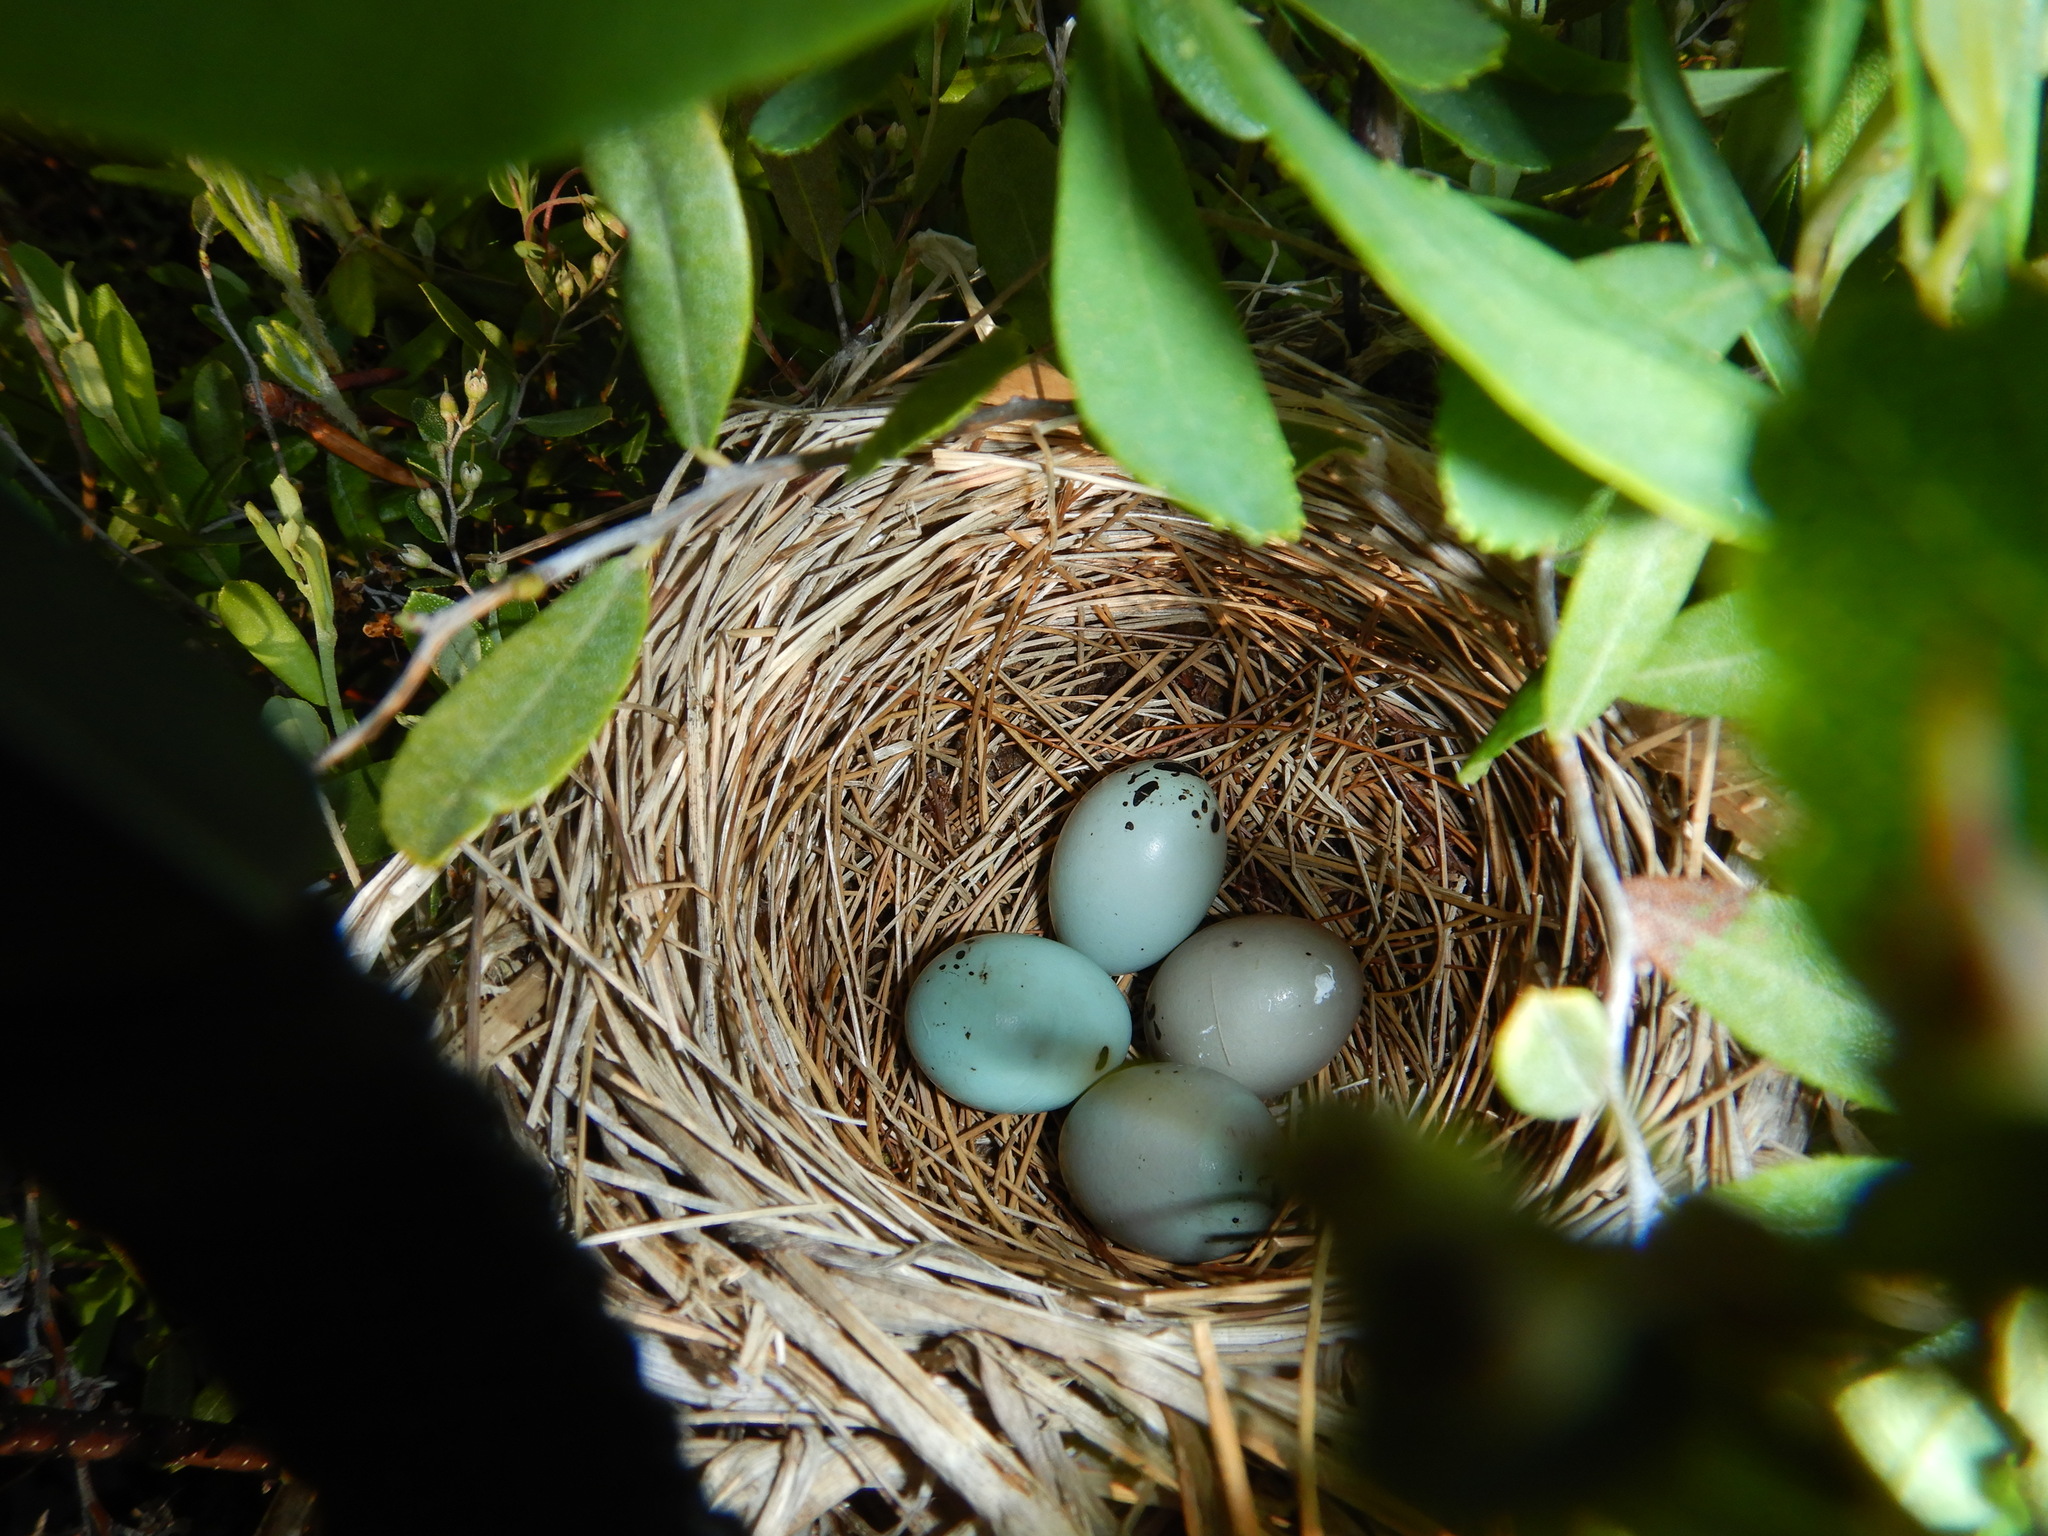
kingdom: Animalia
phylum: Chordata
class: Aves
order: Passeriformes
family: Icteridae
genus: Agelaius
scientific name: Agelaius phoeniceus
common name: Red-winged blackbird
